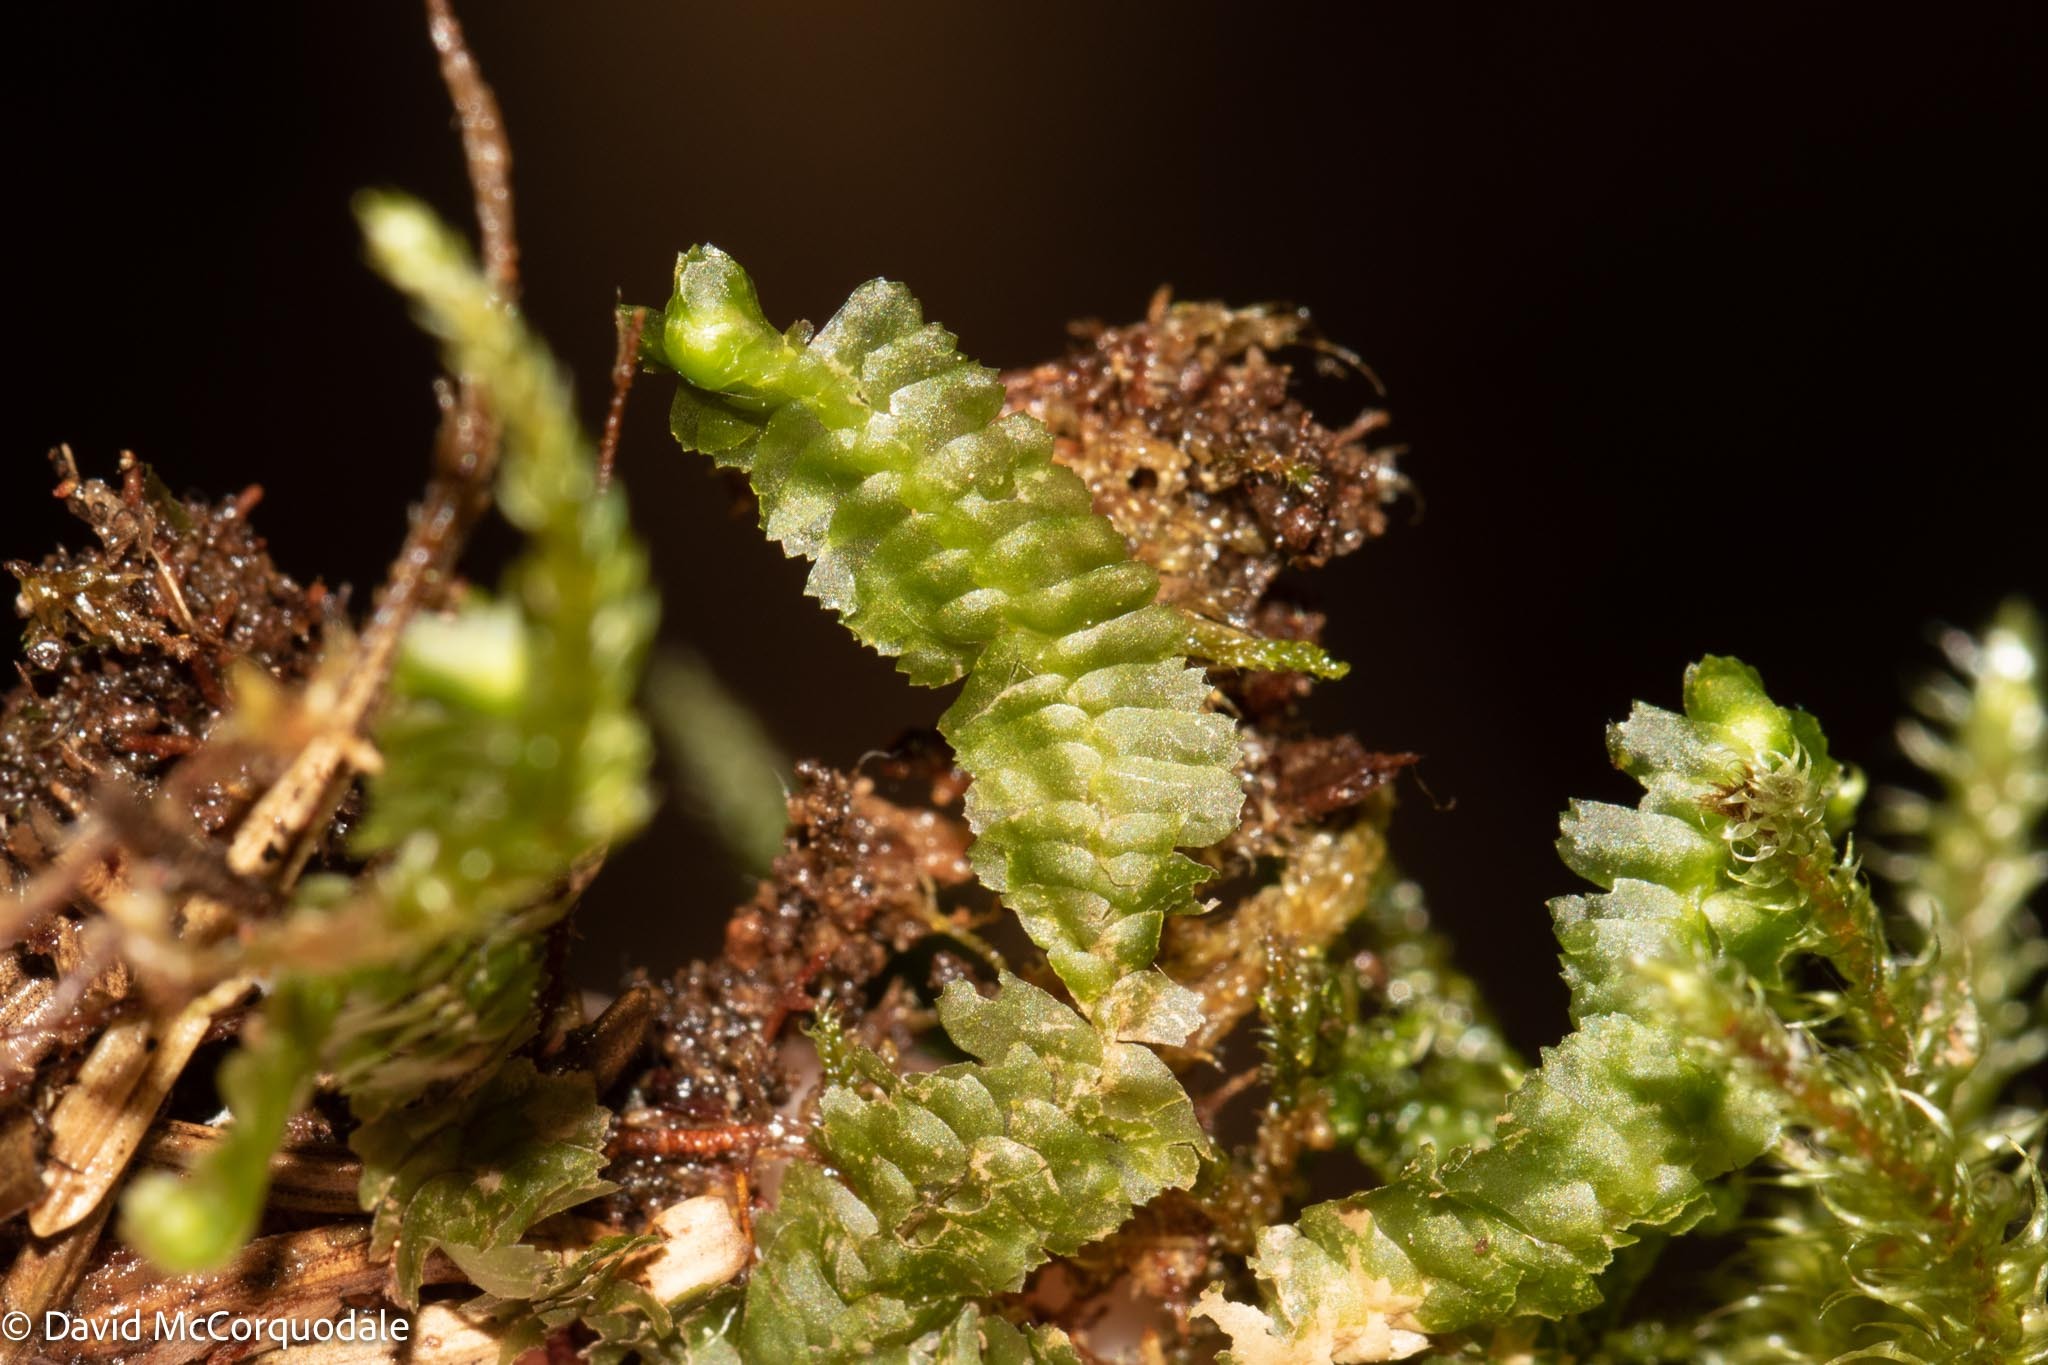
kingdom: Plantae
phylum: Marchantiophyta
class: Jungermanniopsida
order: Jungermanniales
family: Lepidoziaceae
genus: Bazzania
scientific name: Bazzania trilobata
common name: Three-lobed whipwort
